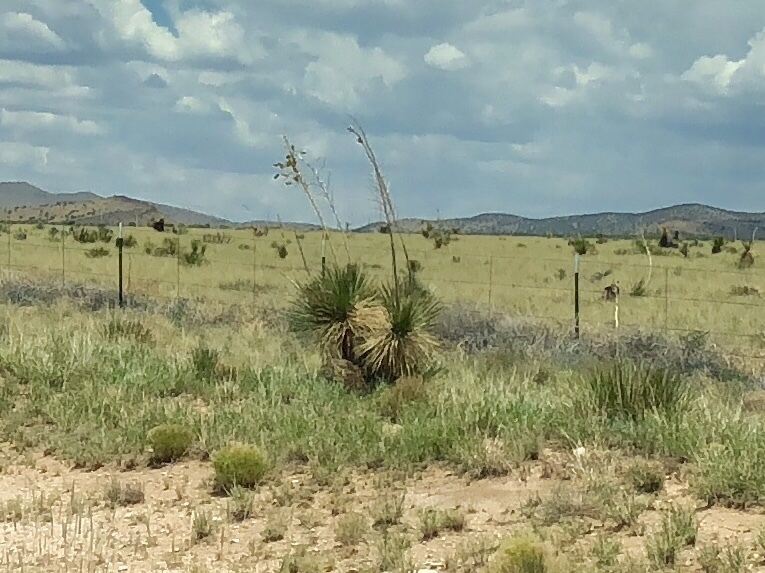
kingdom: Plantae
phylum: Tracheophyta
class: Liliopsida
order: Asparagales
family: Asparagaceae
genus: Yucca
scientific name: Yucca elata
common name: Palmella
